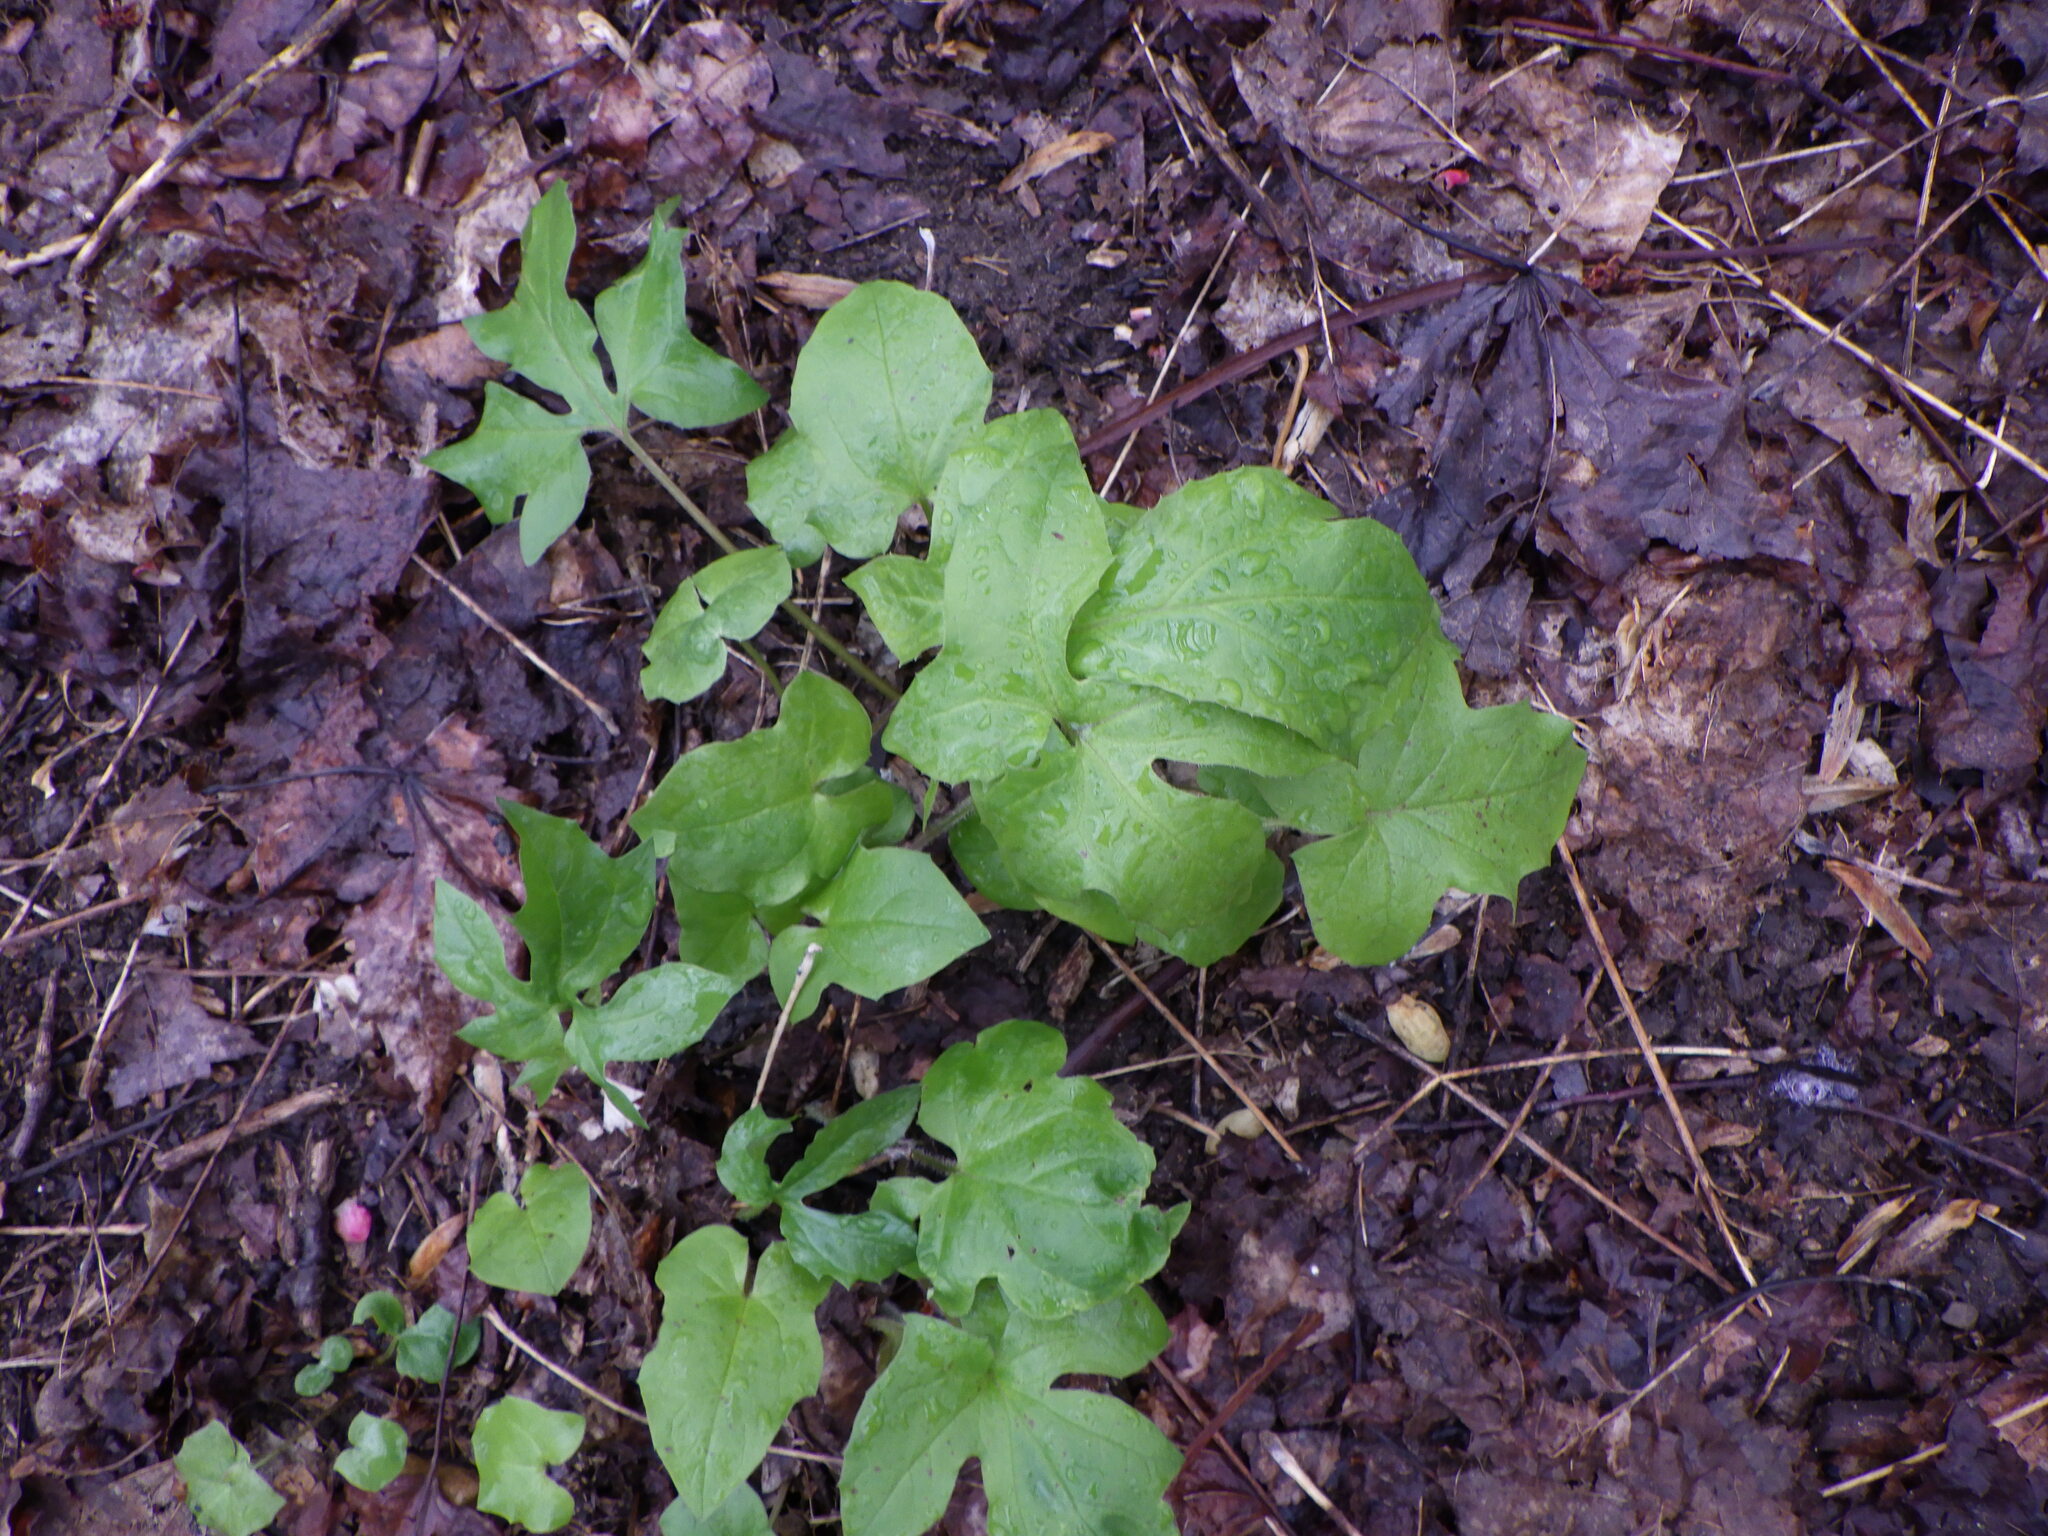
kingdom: Plantae
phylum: Tracheophyta
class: Magnoliopsida
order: Asterales
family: Asteraceae
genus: Nabalus
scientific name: Nabalus
